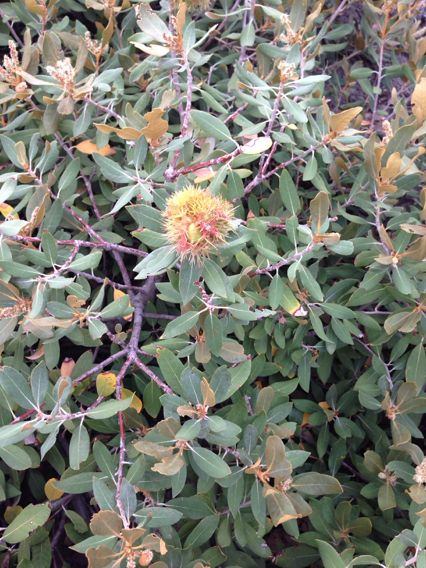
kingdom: Plantae
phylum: Tracheophyta
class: Magnoliopsida
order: Fagales
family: Fagaceae
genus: Chrysolepis
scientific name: Chrysolepis sempervirens
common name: Bush chinquapin
